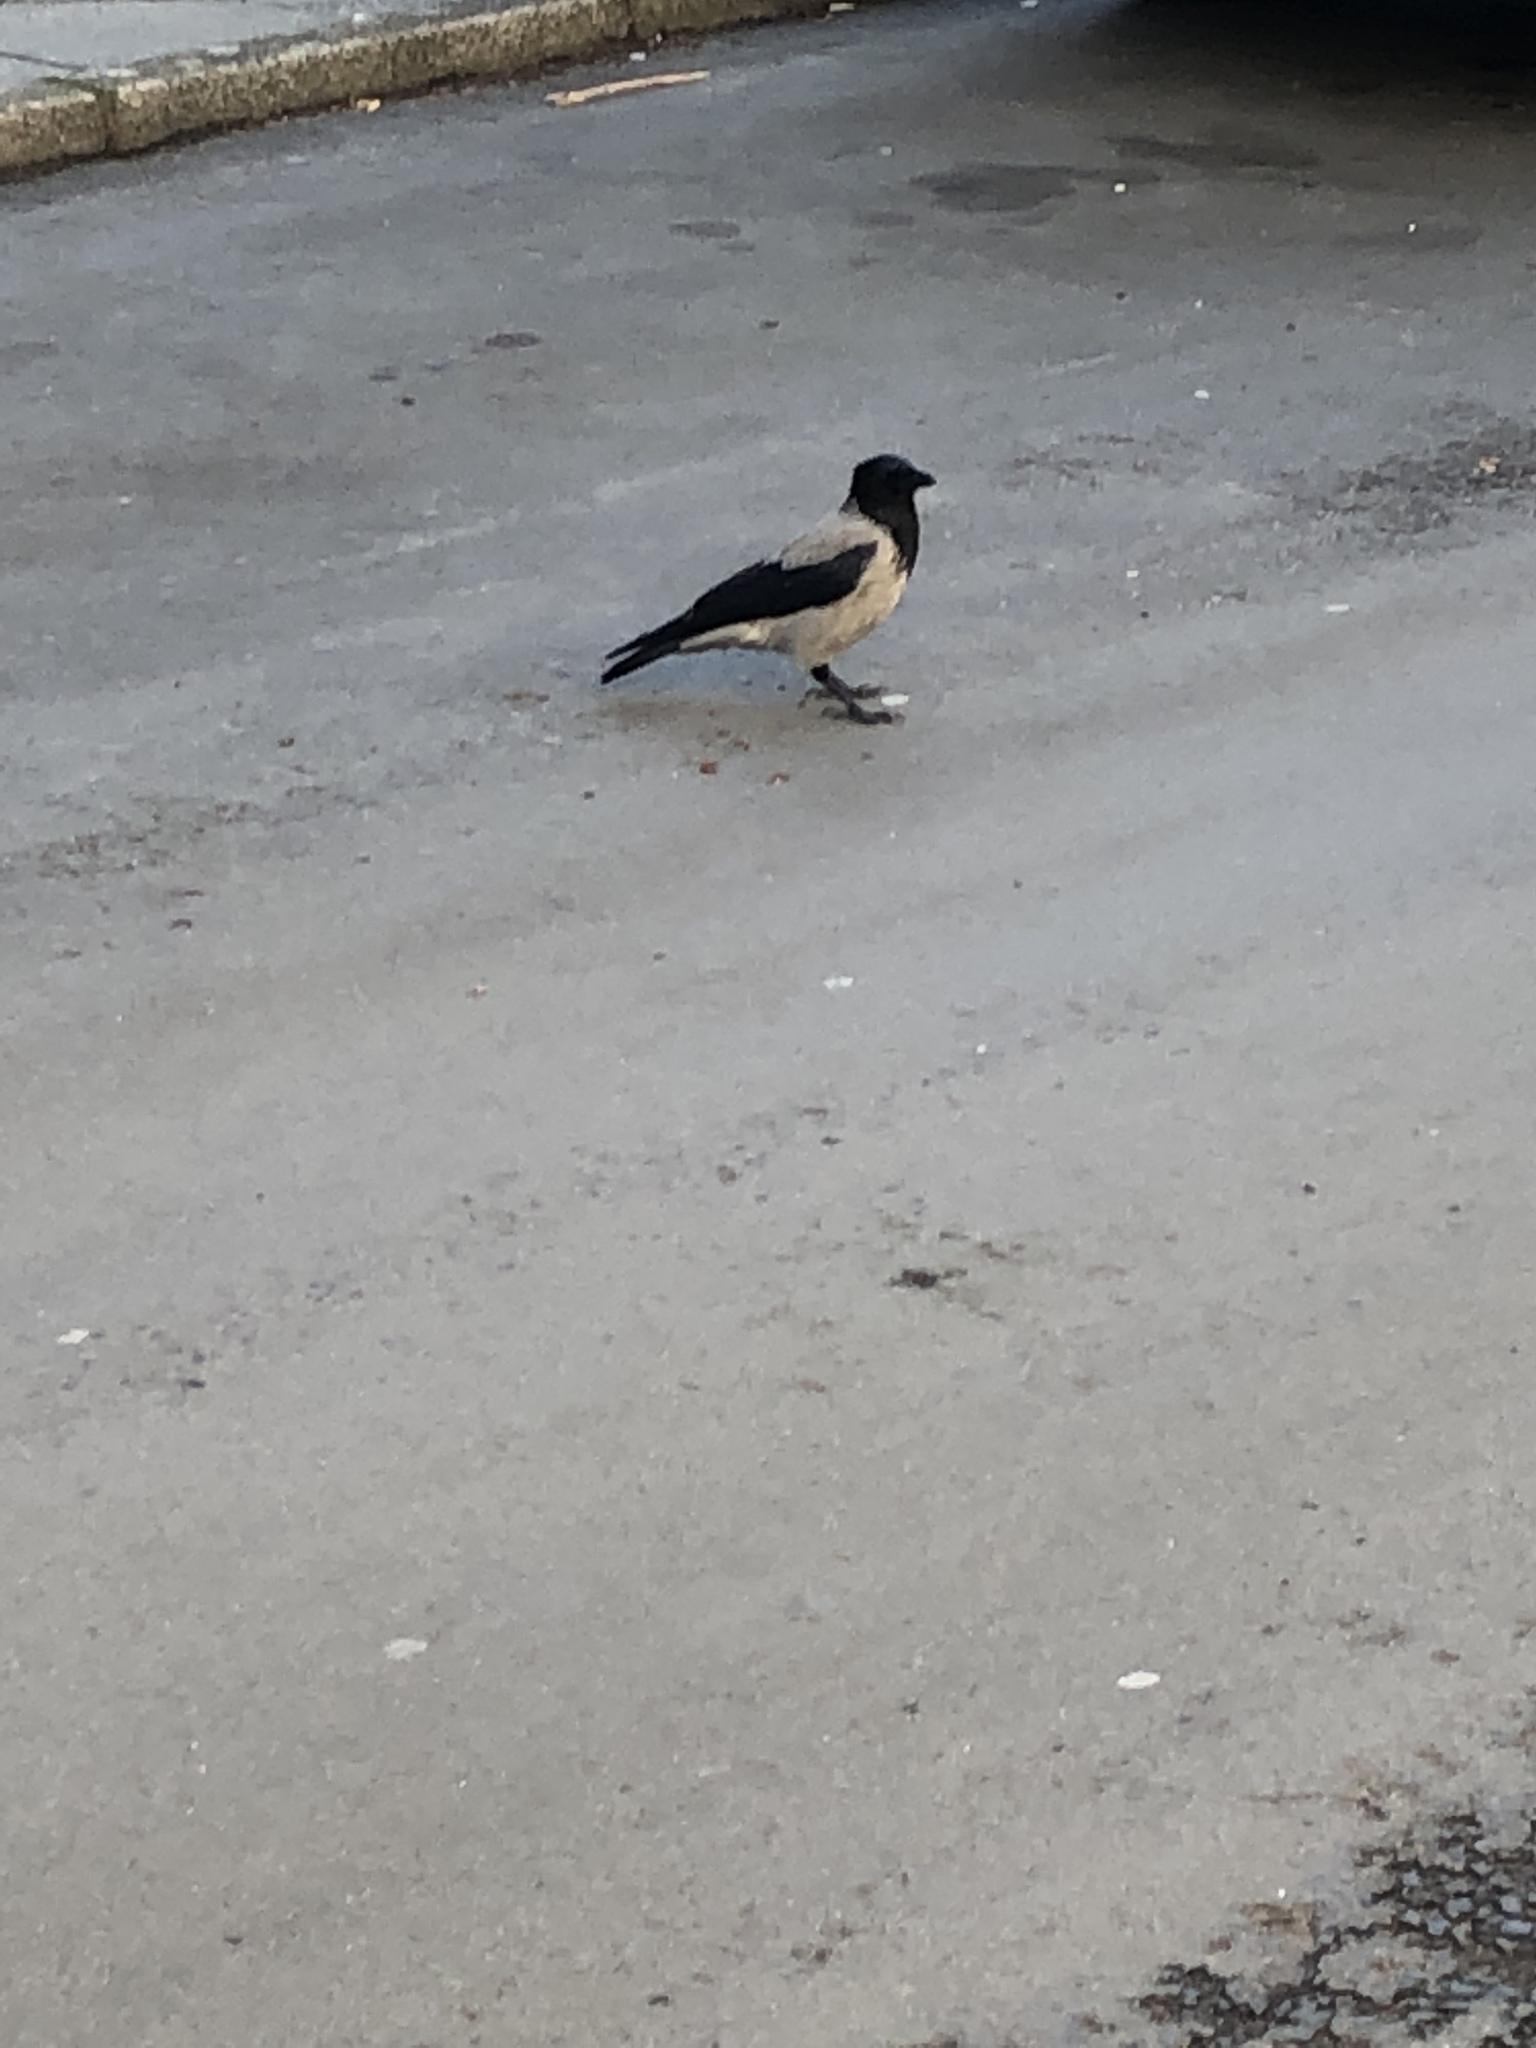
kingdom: Animalia
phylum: Chordata
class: Aves
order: Passeriformes
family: Corvidae
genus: Corvus
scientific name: Corvus cornix
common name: Hooded crow
